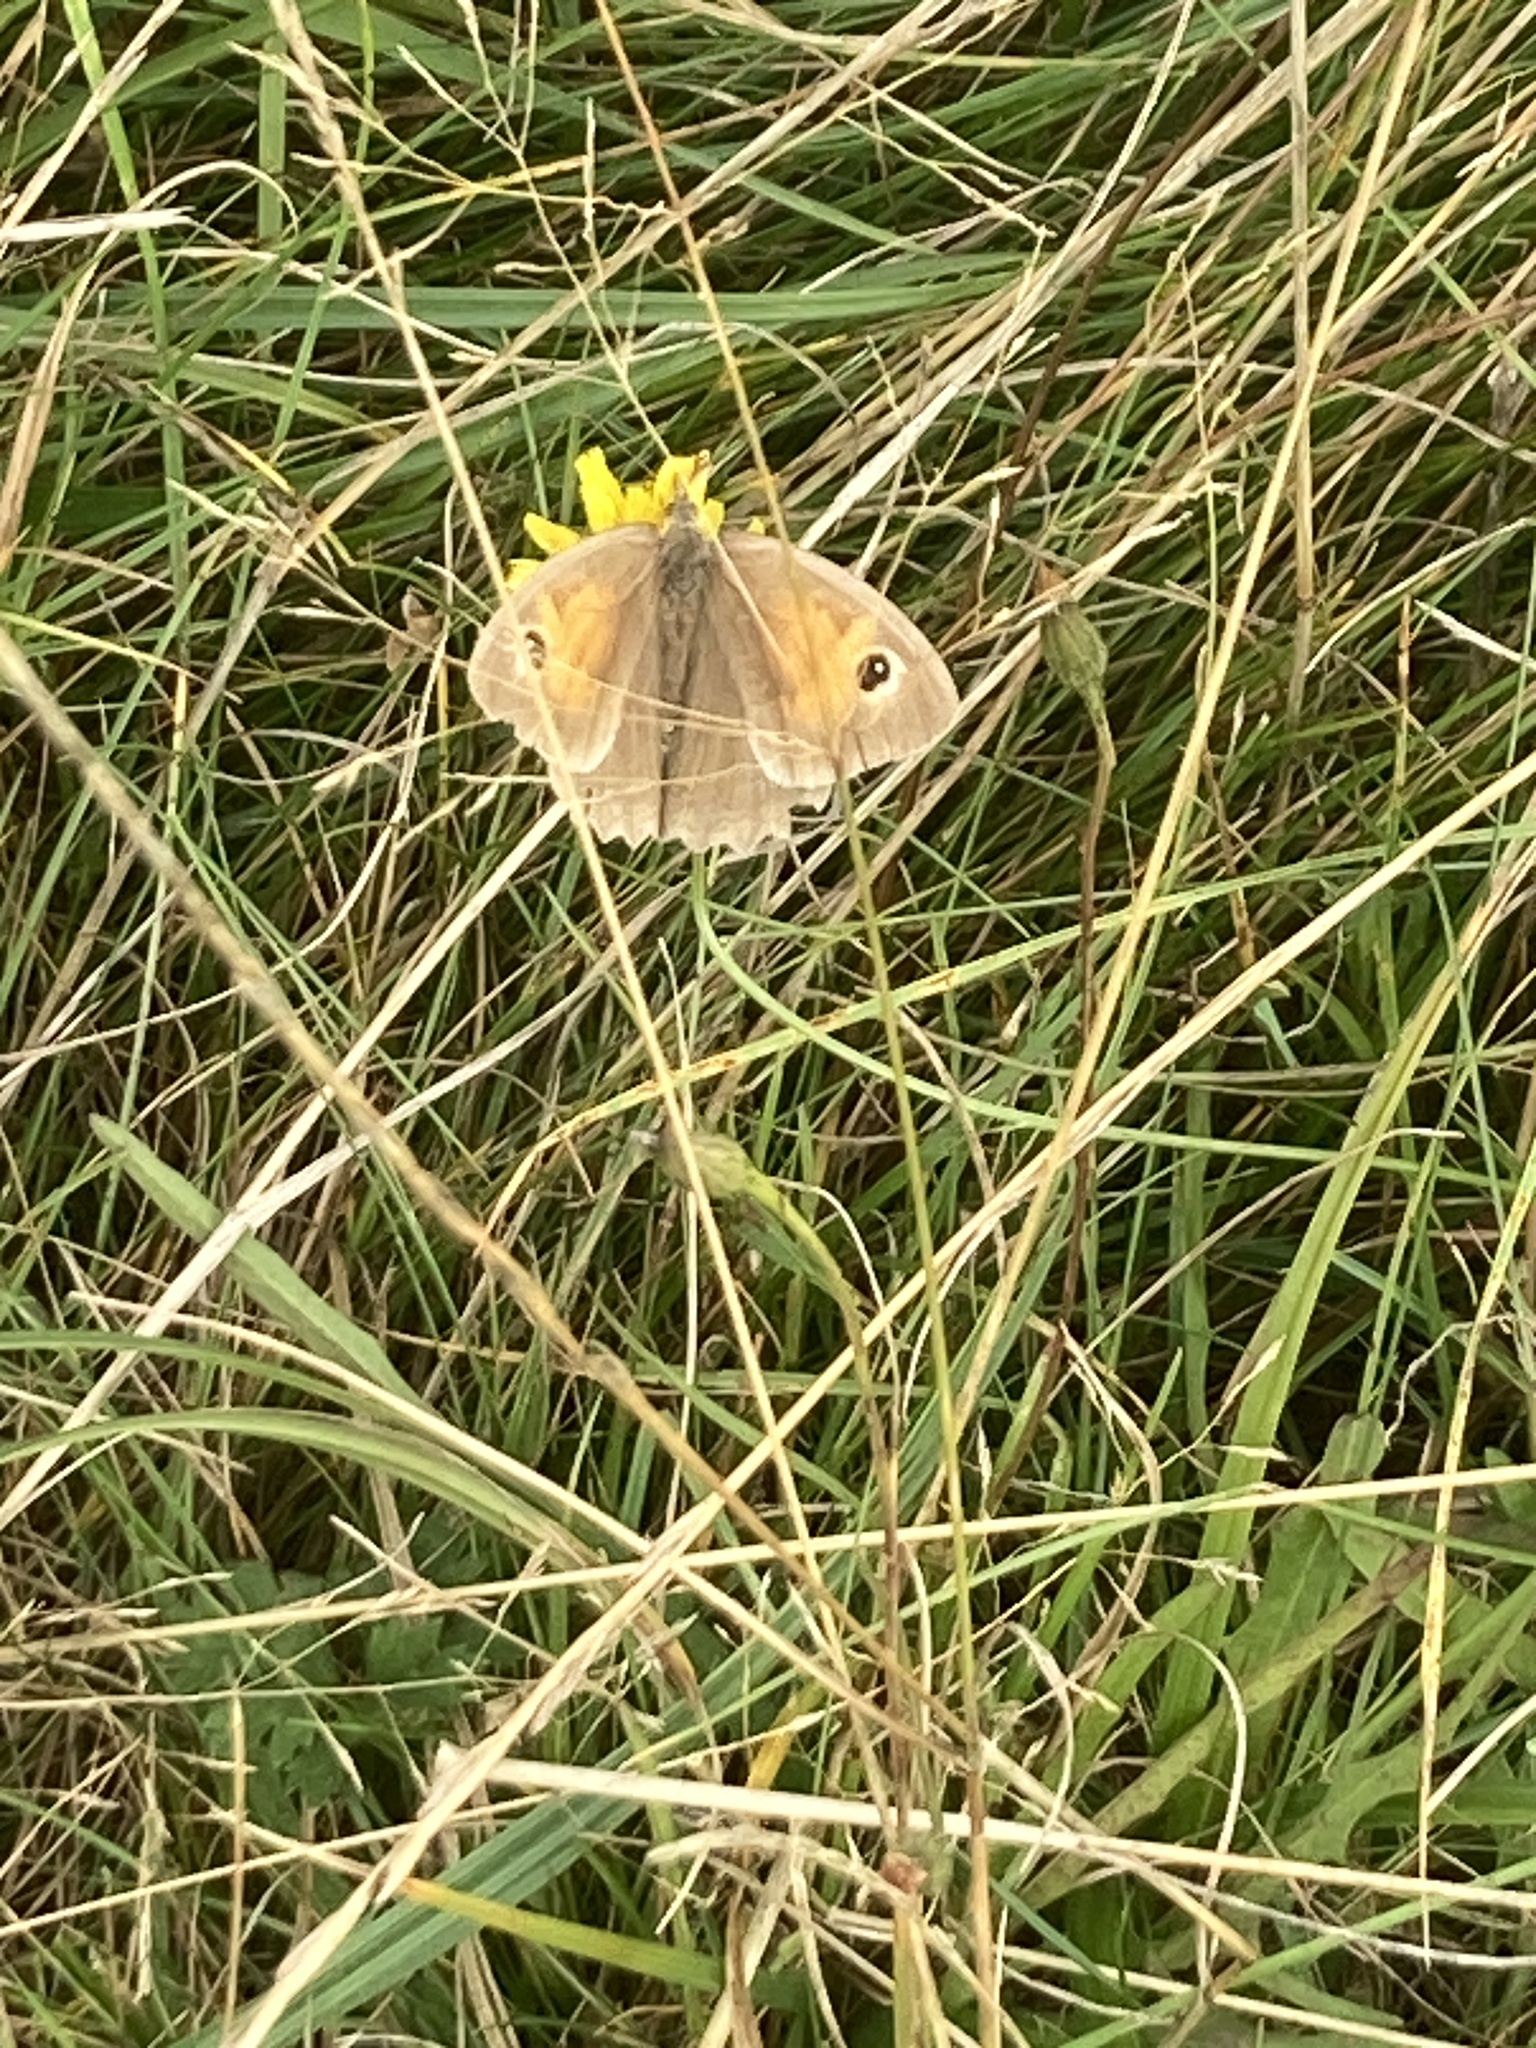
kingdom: Animalia
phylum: Arthropoda
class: Insecta
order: Lepidoptera
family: Nymphalidae
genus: Maniola
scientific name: Maniola jurtina
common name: Meadow brown
